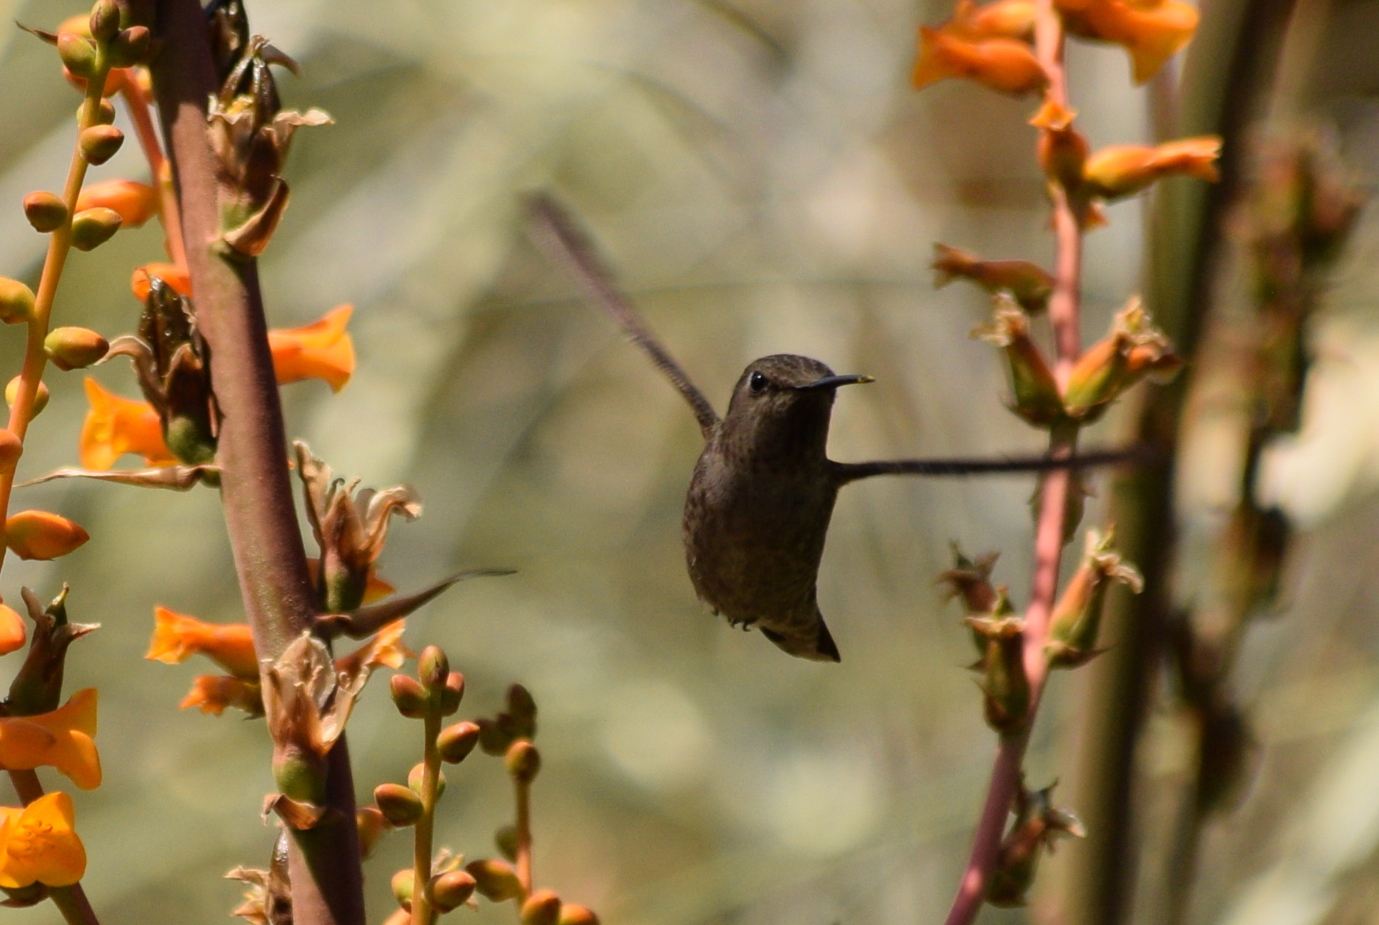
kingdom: Animalia
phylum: Chordata
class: Aves
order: Apodiformes
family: Trochilidae
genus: Calypte
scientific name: Calypte anna
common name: Anna's hummingbird
